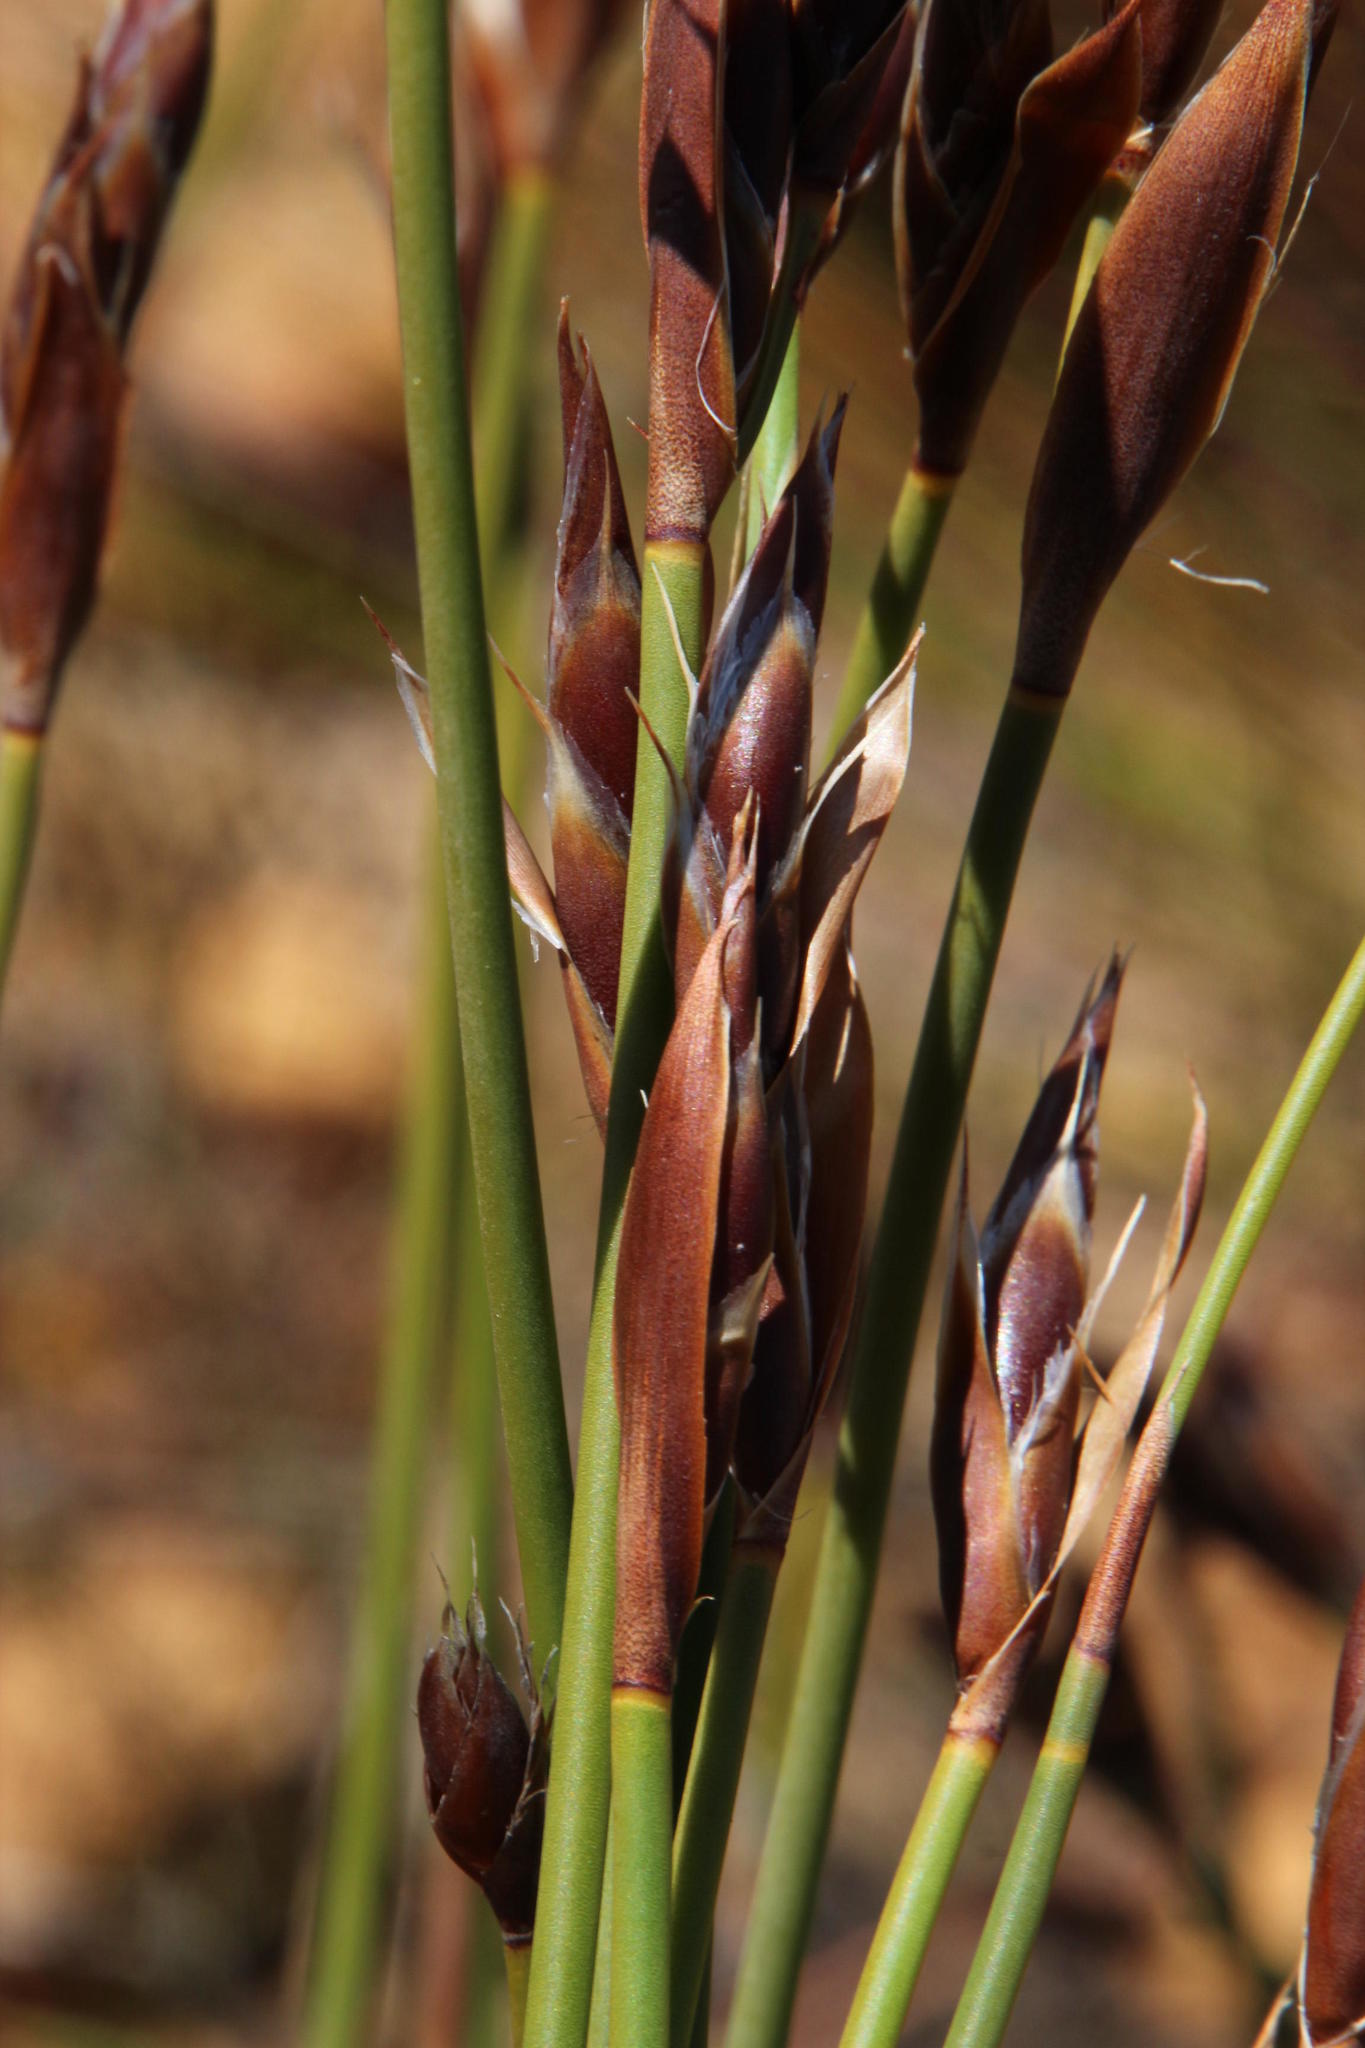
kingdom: Plantae
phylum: Tracheophyta
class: Liliopsida
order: Poales
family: Restionaceae
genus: Cannomois
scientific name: Cannomois primosii
